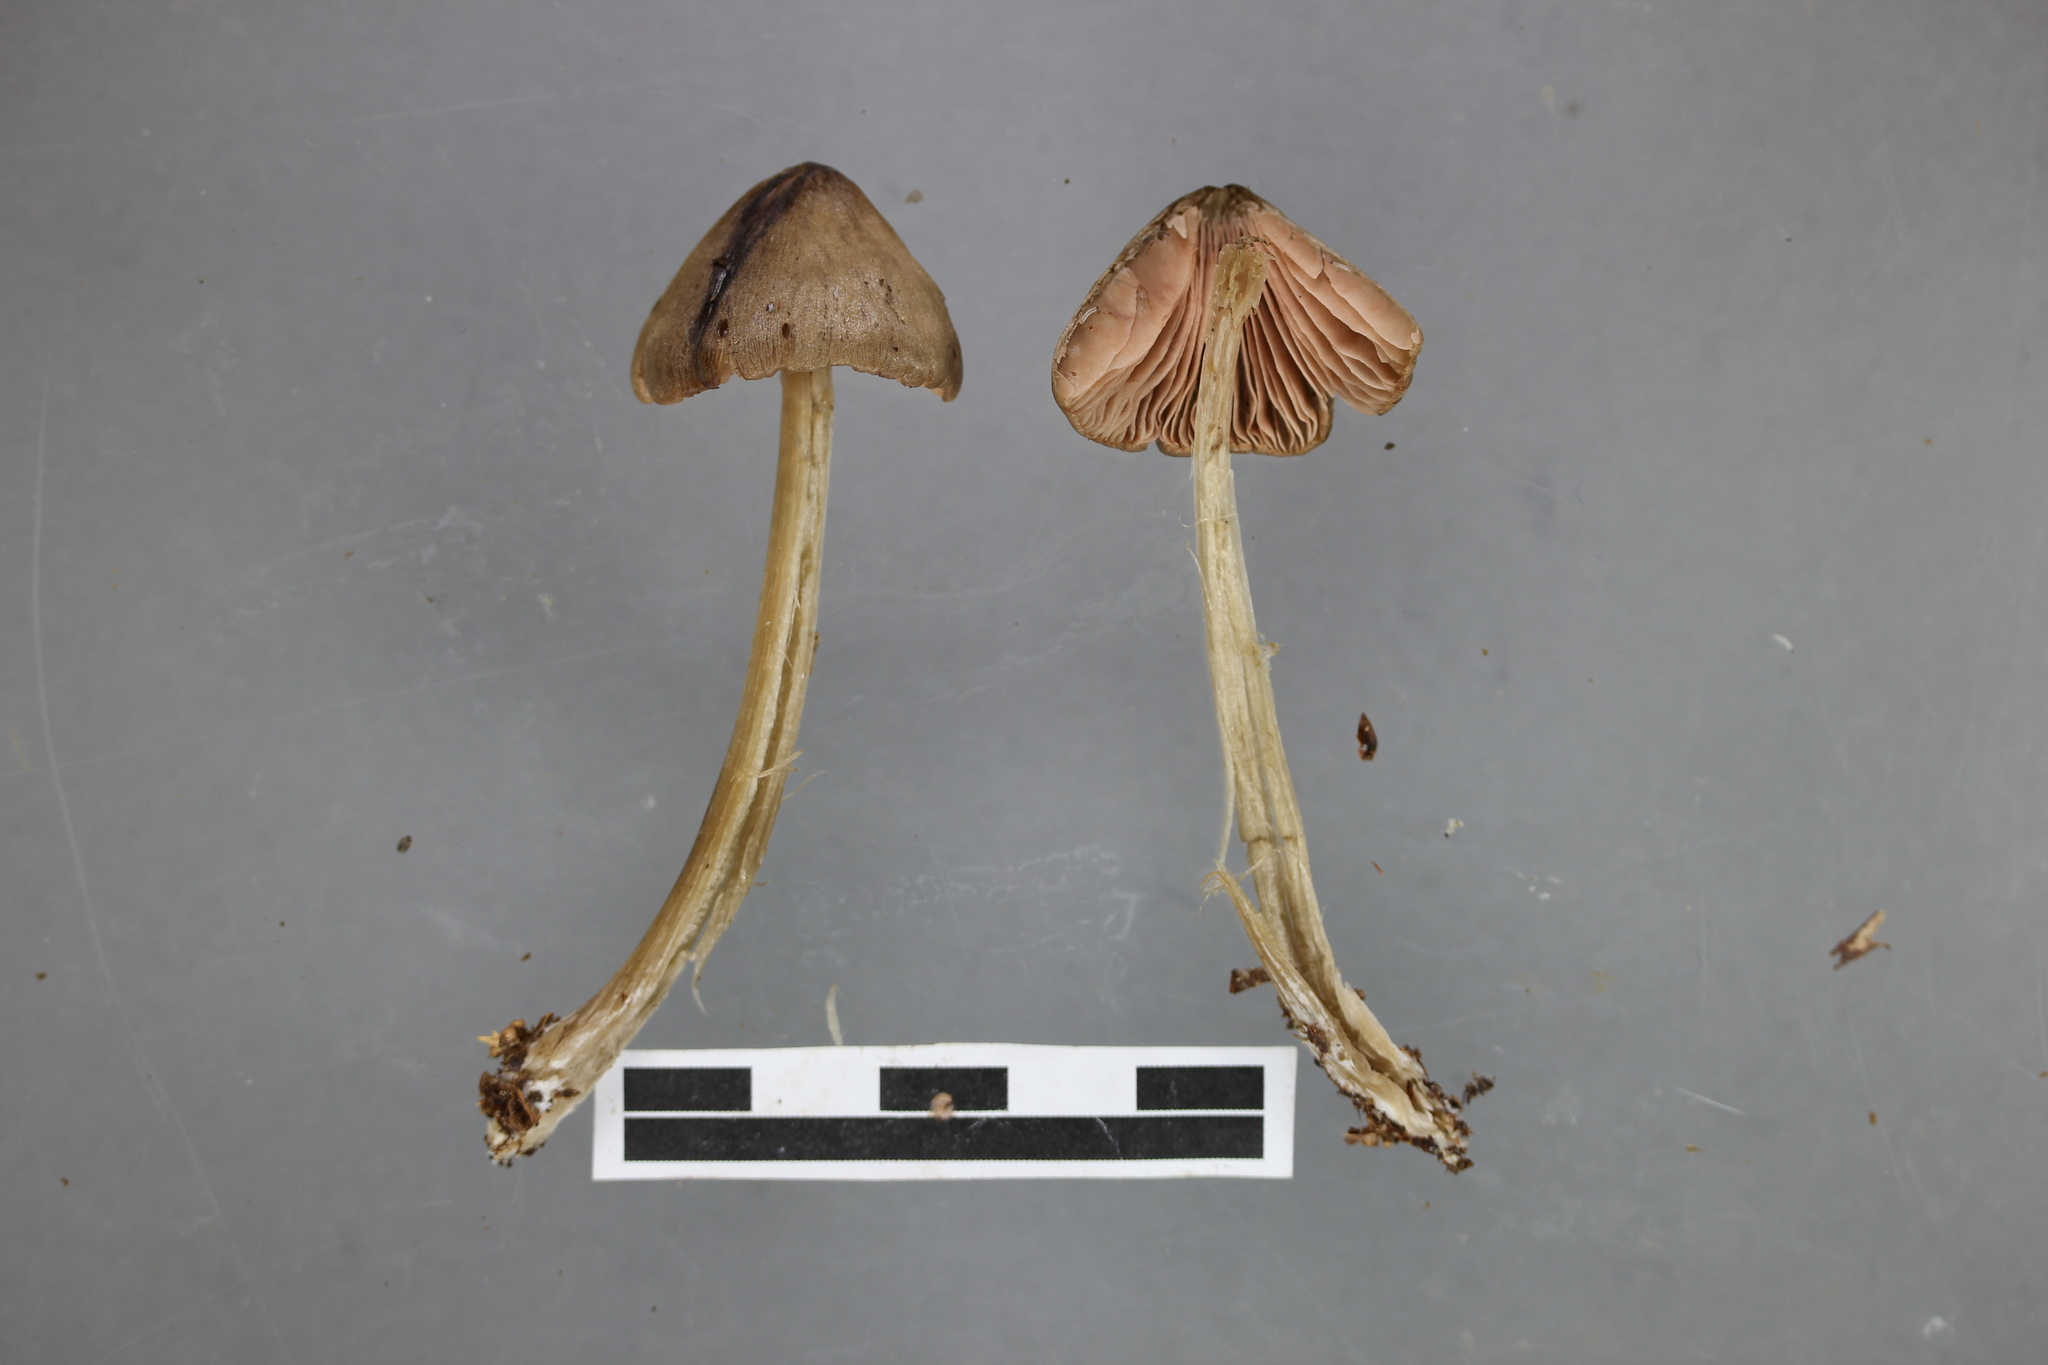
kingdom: Fungi
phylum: Basidiomycota
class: Agaricomycetes
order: Agaricales
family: Entolomataceae
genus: Entoloma
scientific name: Entoloma canoconicum
